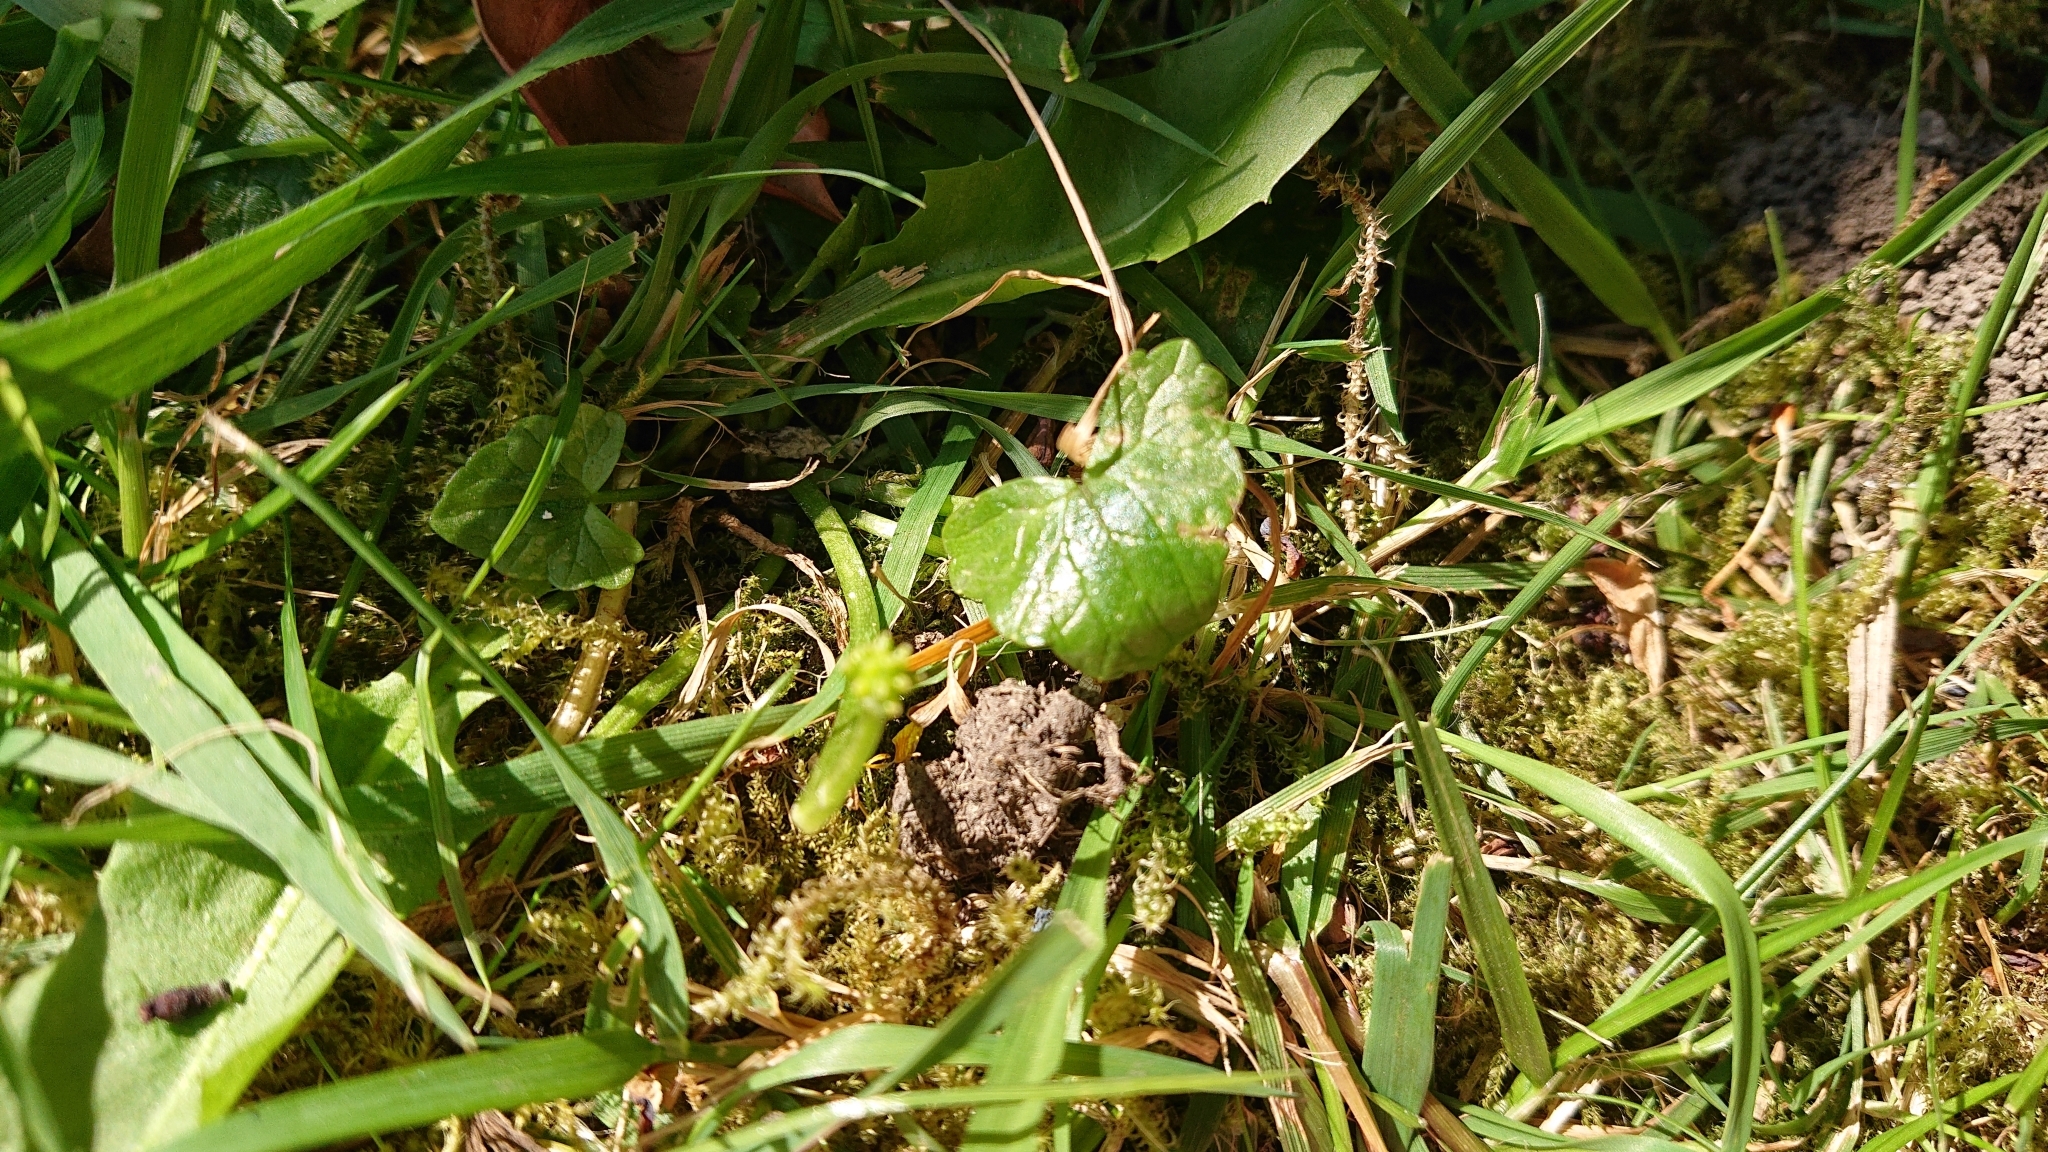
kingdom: Plantae
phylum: Tracheophyta
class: Magnoliopsida
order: Ranunculales
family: Ranunculaceae
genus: Ficaria
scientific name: Ficaria verna
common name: Lesser celandine
